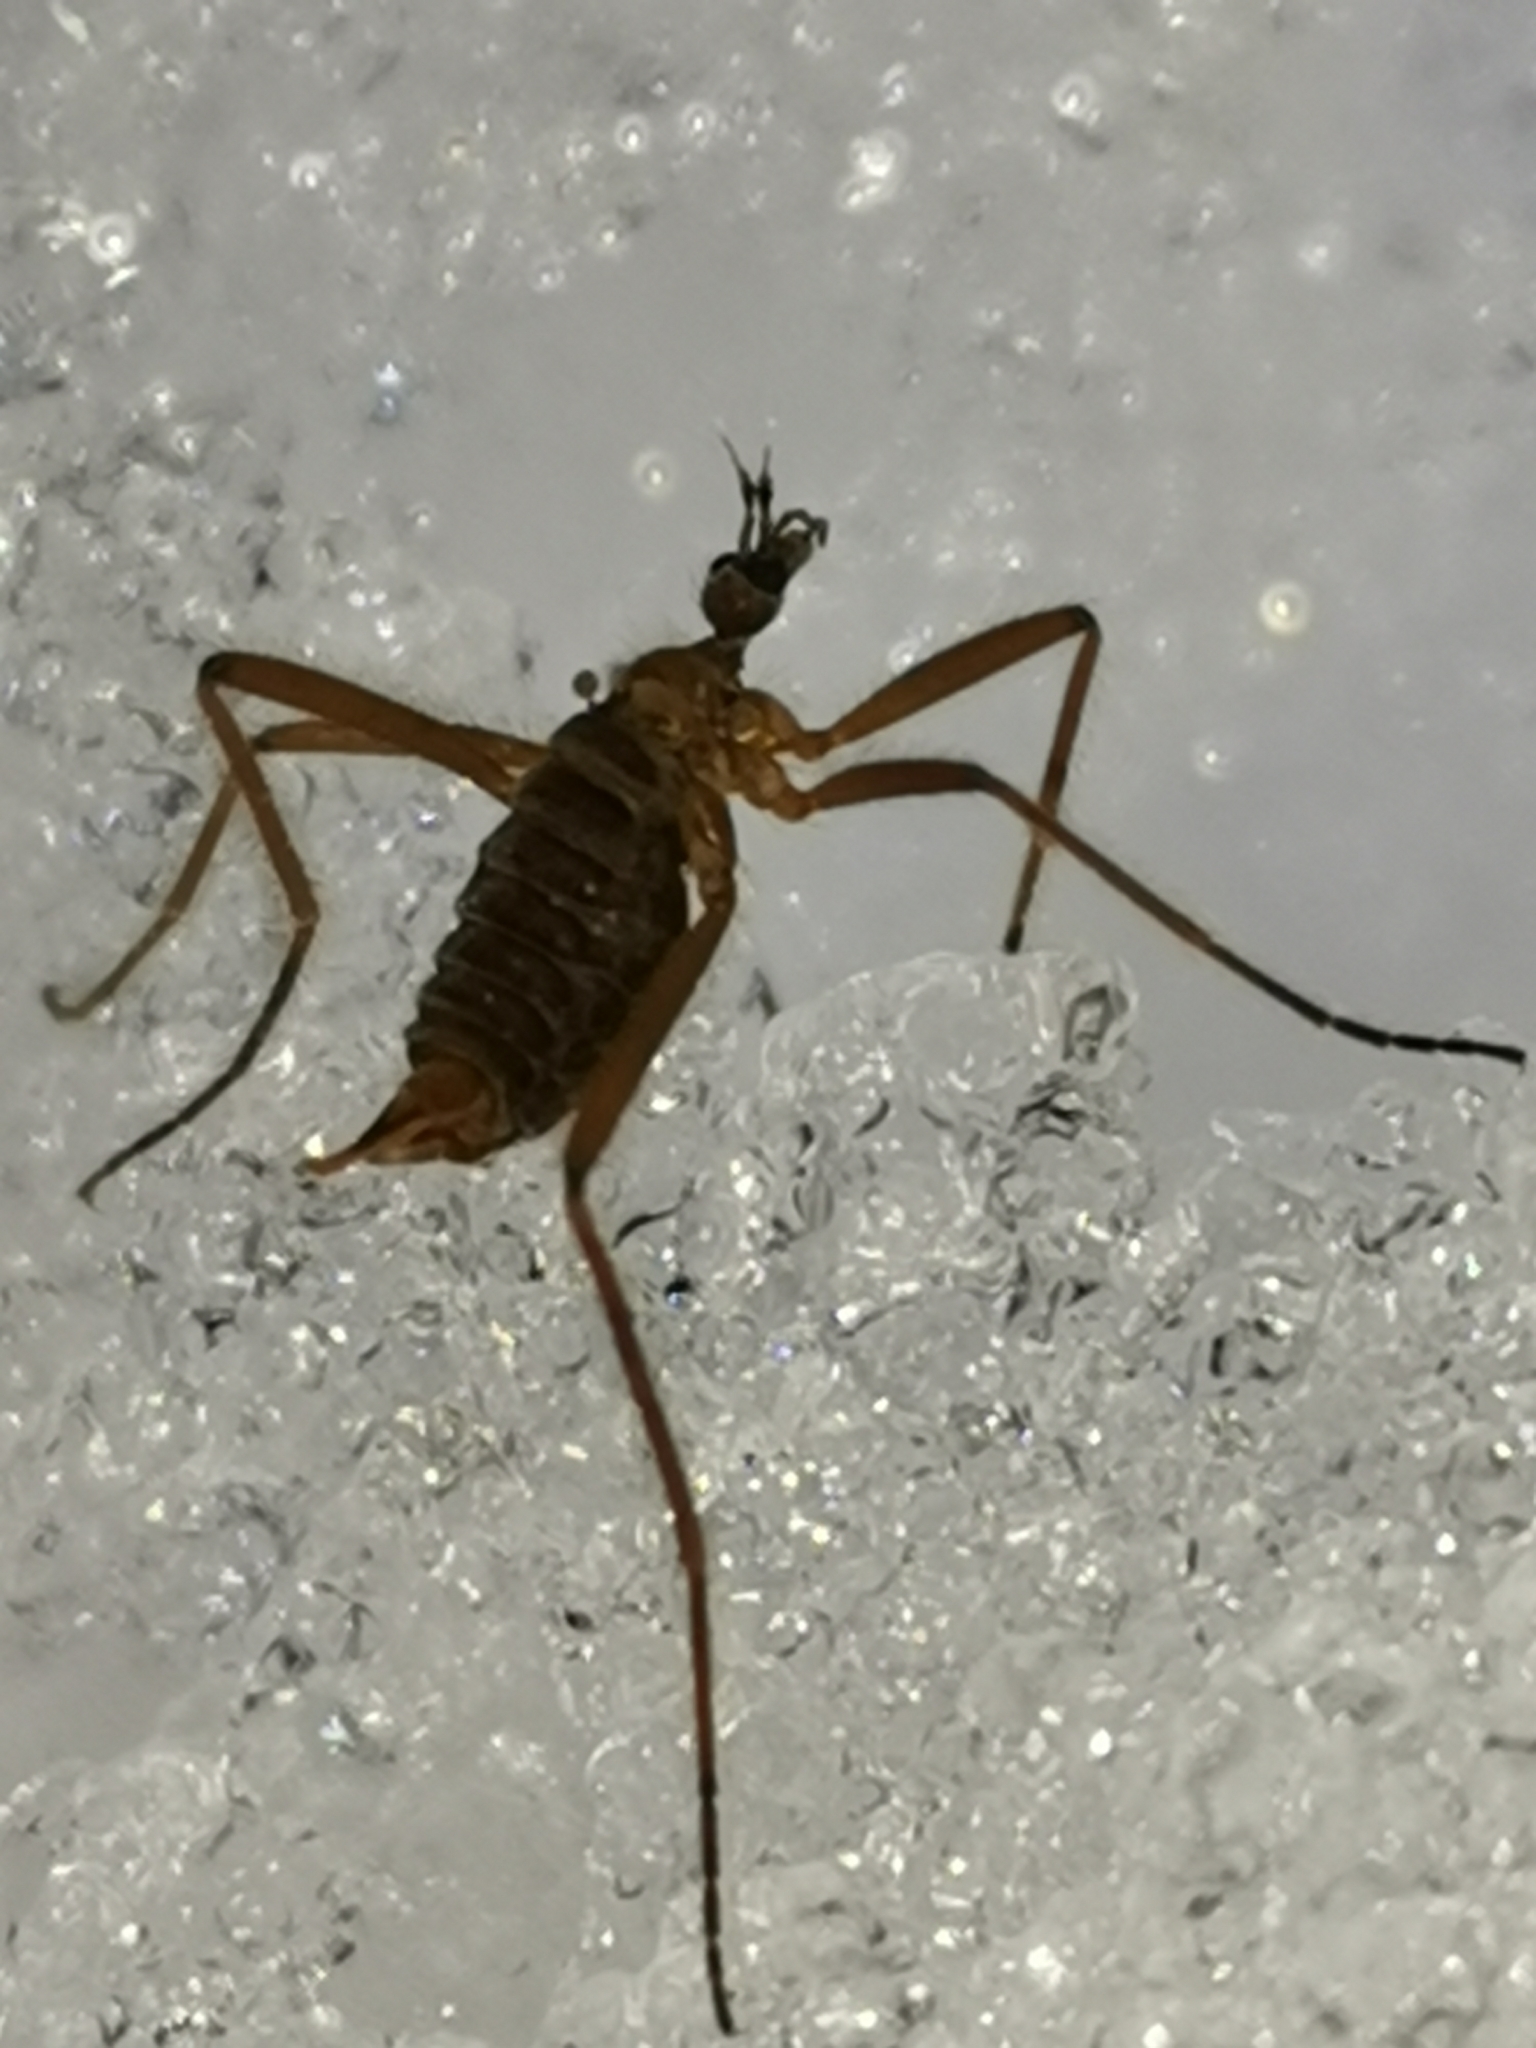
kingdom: Animalia
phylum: Arthropoda
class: Insecta
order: Diptera
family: Limoniidae
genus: Chionea
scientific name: Chionea lutescens
